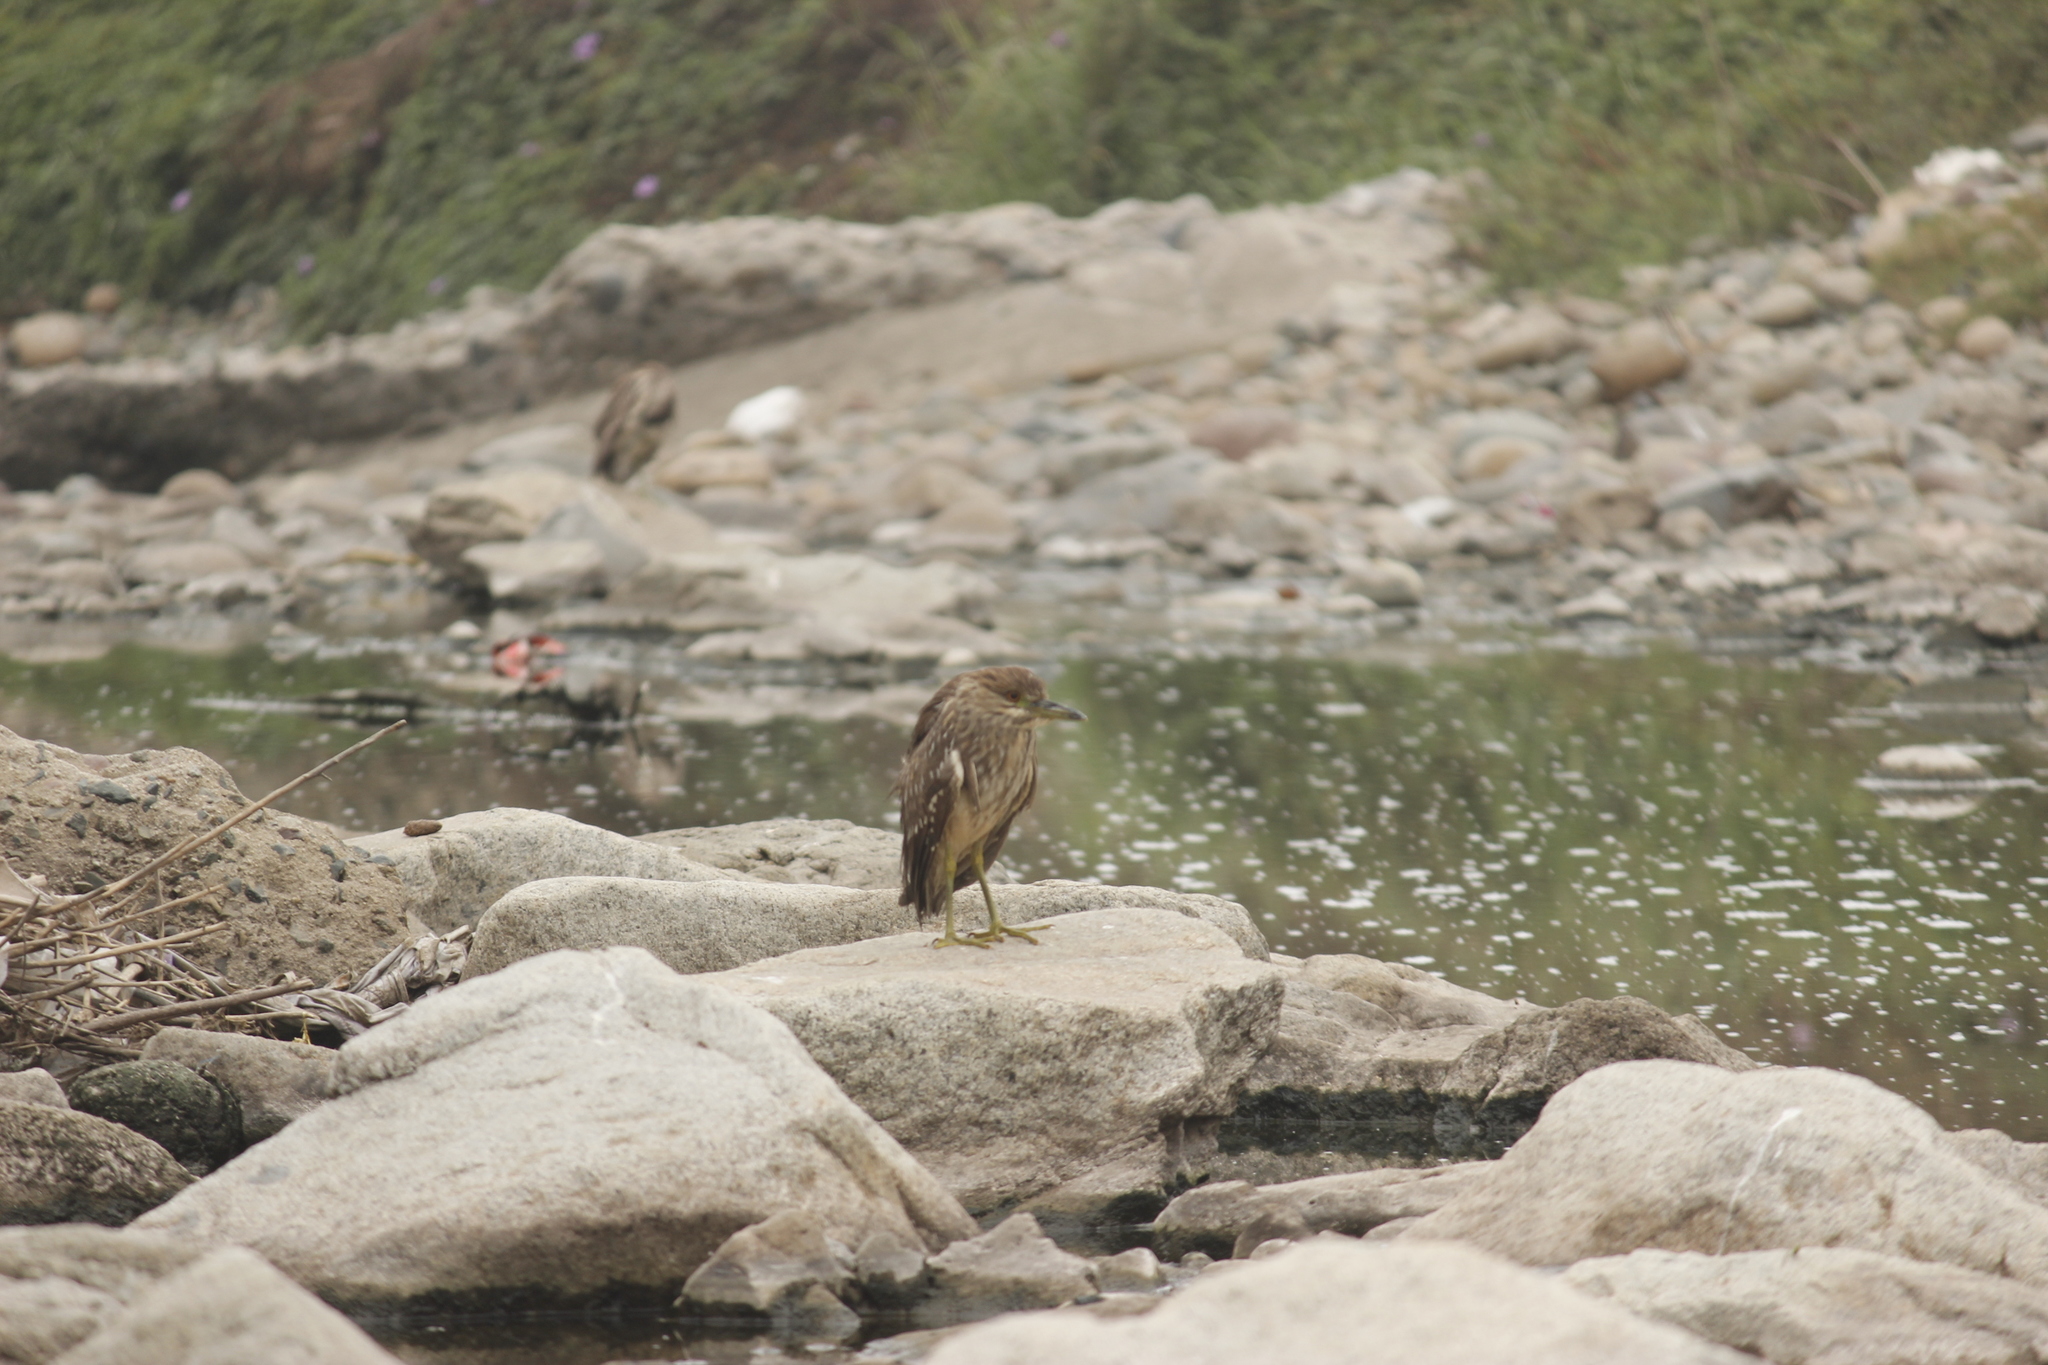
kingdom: Animalia
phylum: Chordata
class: Aves
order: Pelecaniformes
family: Ardeidae
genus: Nycticorax
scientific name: Nycticorax nycticorax
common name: Black-crowned night heron
